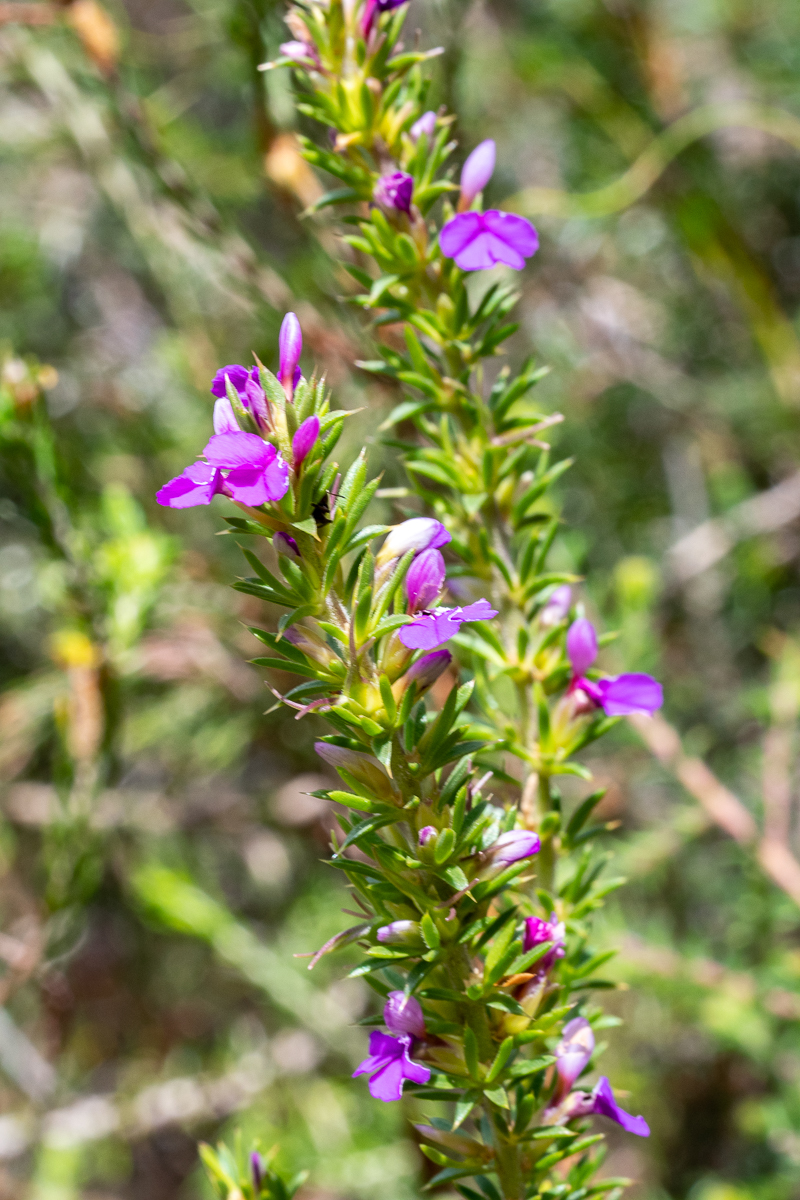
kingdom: Plantae
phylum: Tracheophyta
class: Magnoliopsida
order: Fabales
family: Polygalaceae
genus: Muraltia
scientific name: Muraltia heisteria
